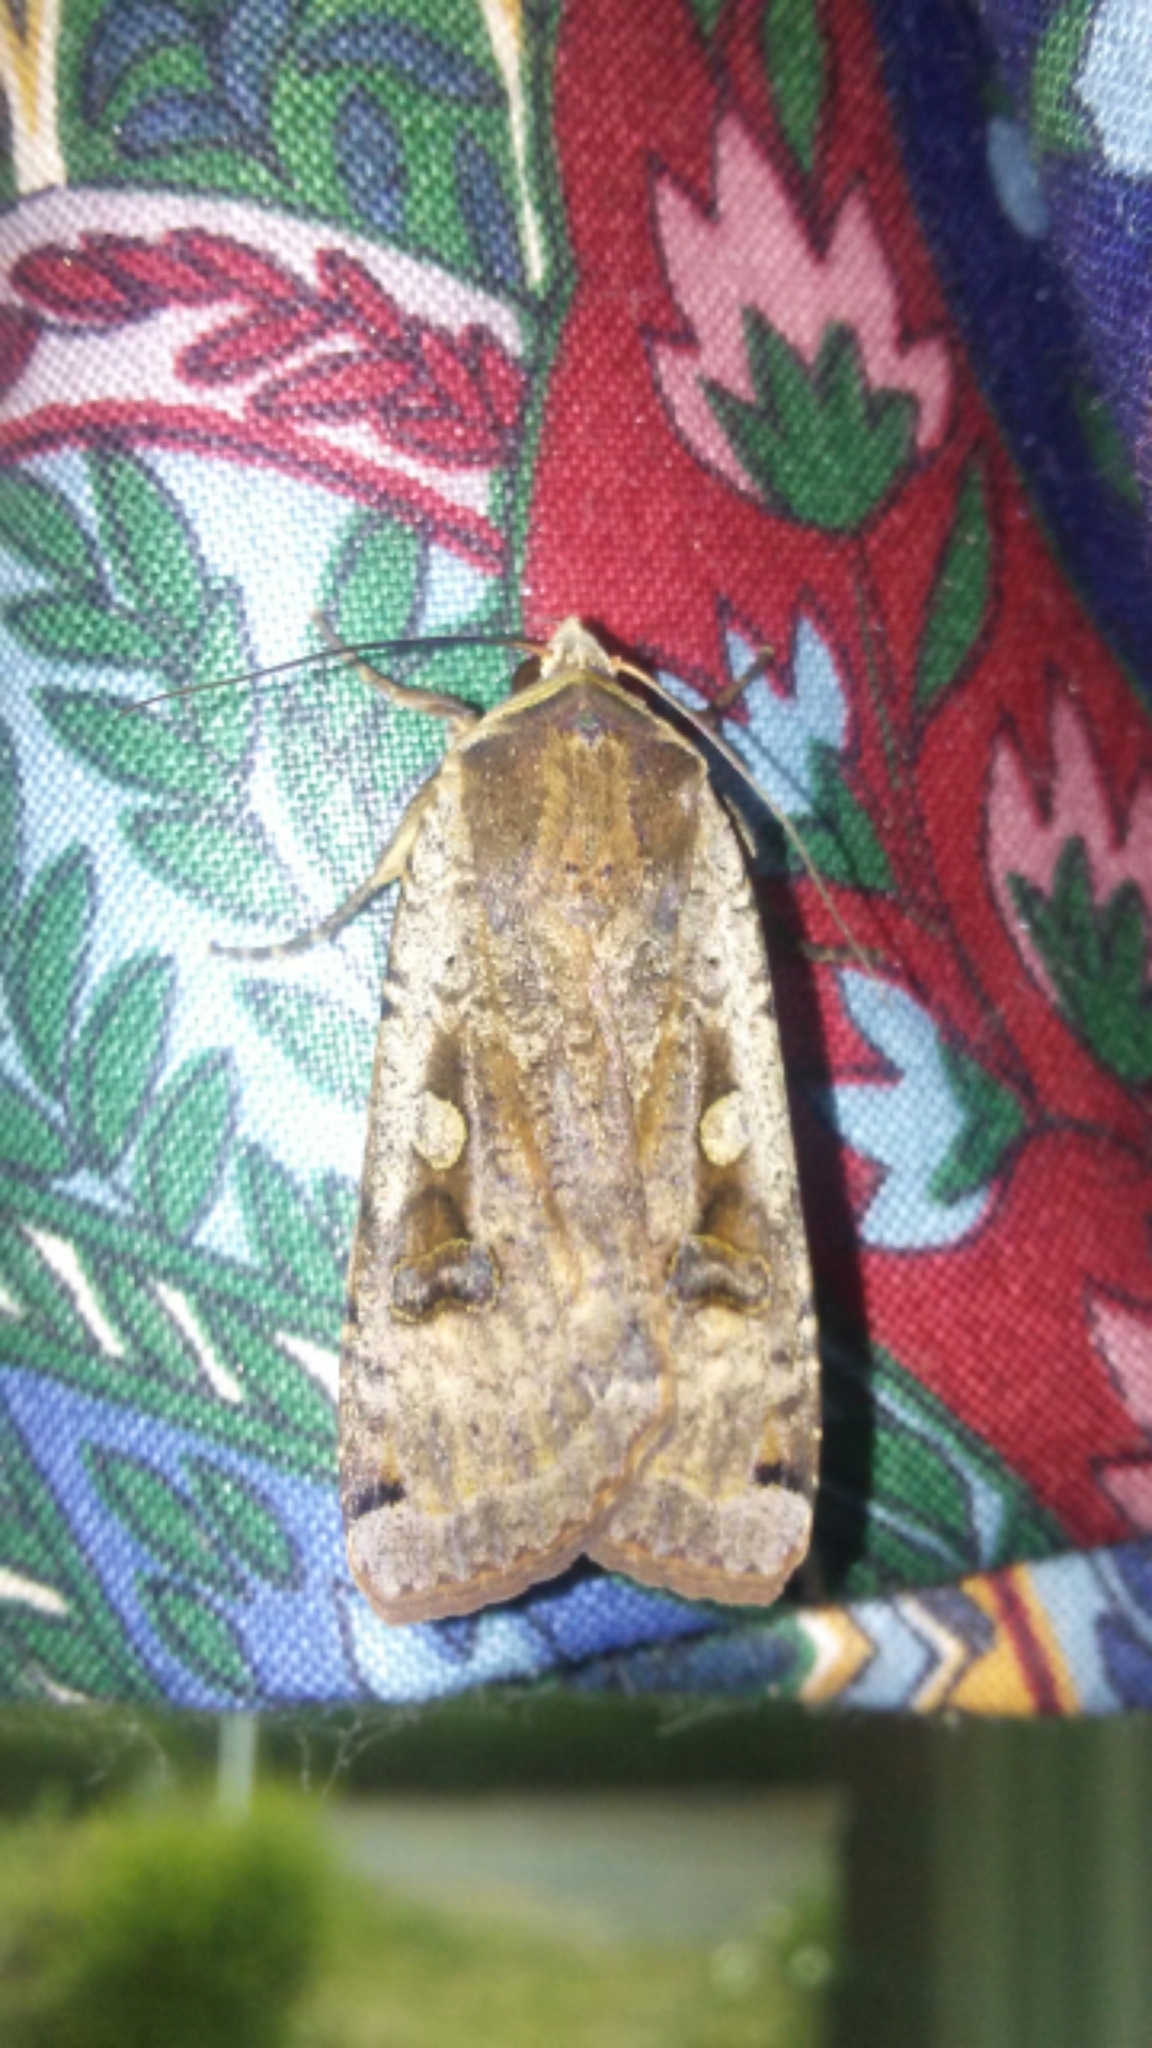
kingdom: Animalia
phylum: Arthropoda
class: Insecta
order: Lepidoptera
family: Noctuidae
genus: Noctua
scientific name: Noctua pronuba
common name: Large yellow underwing
